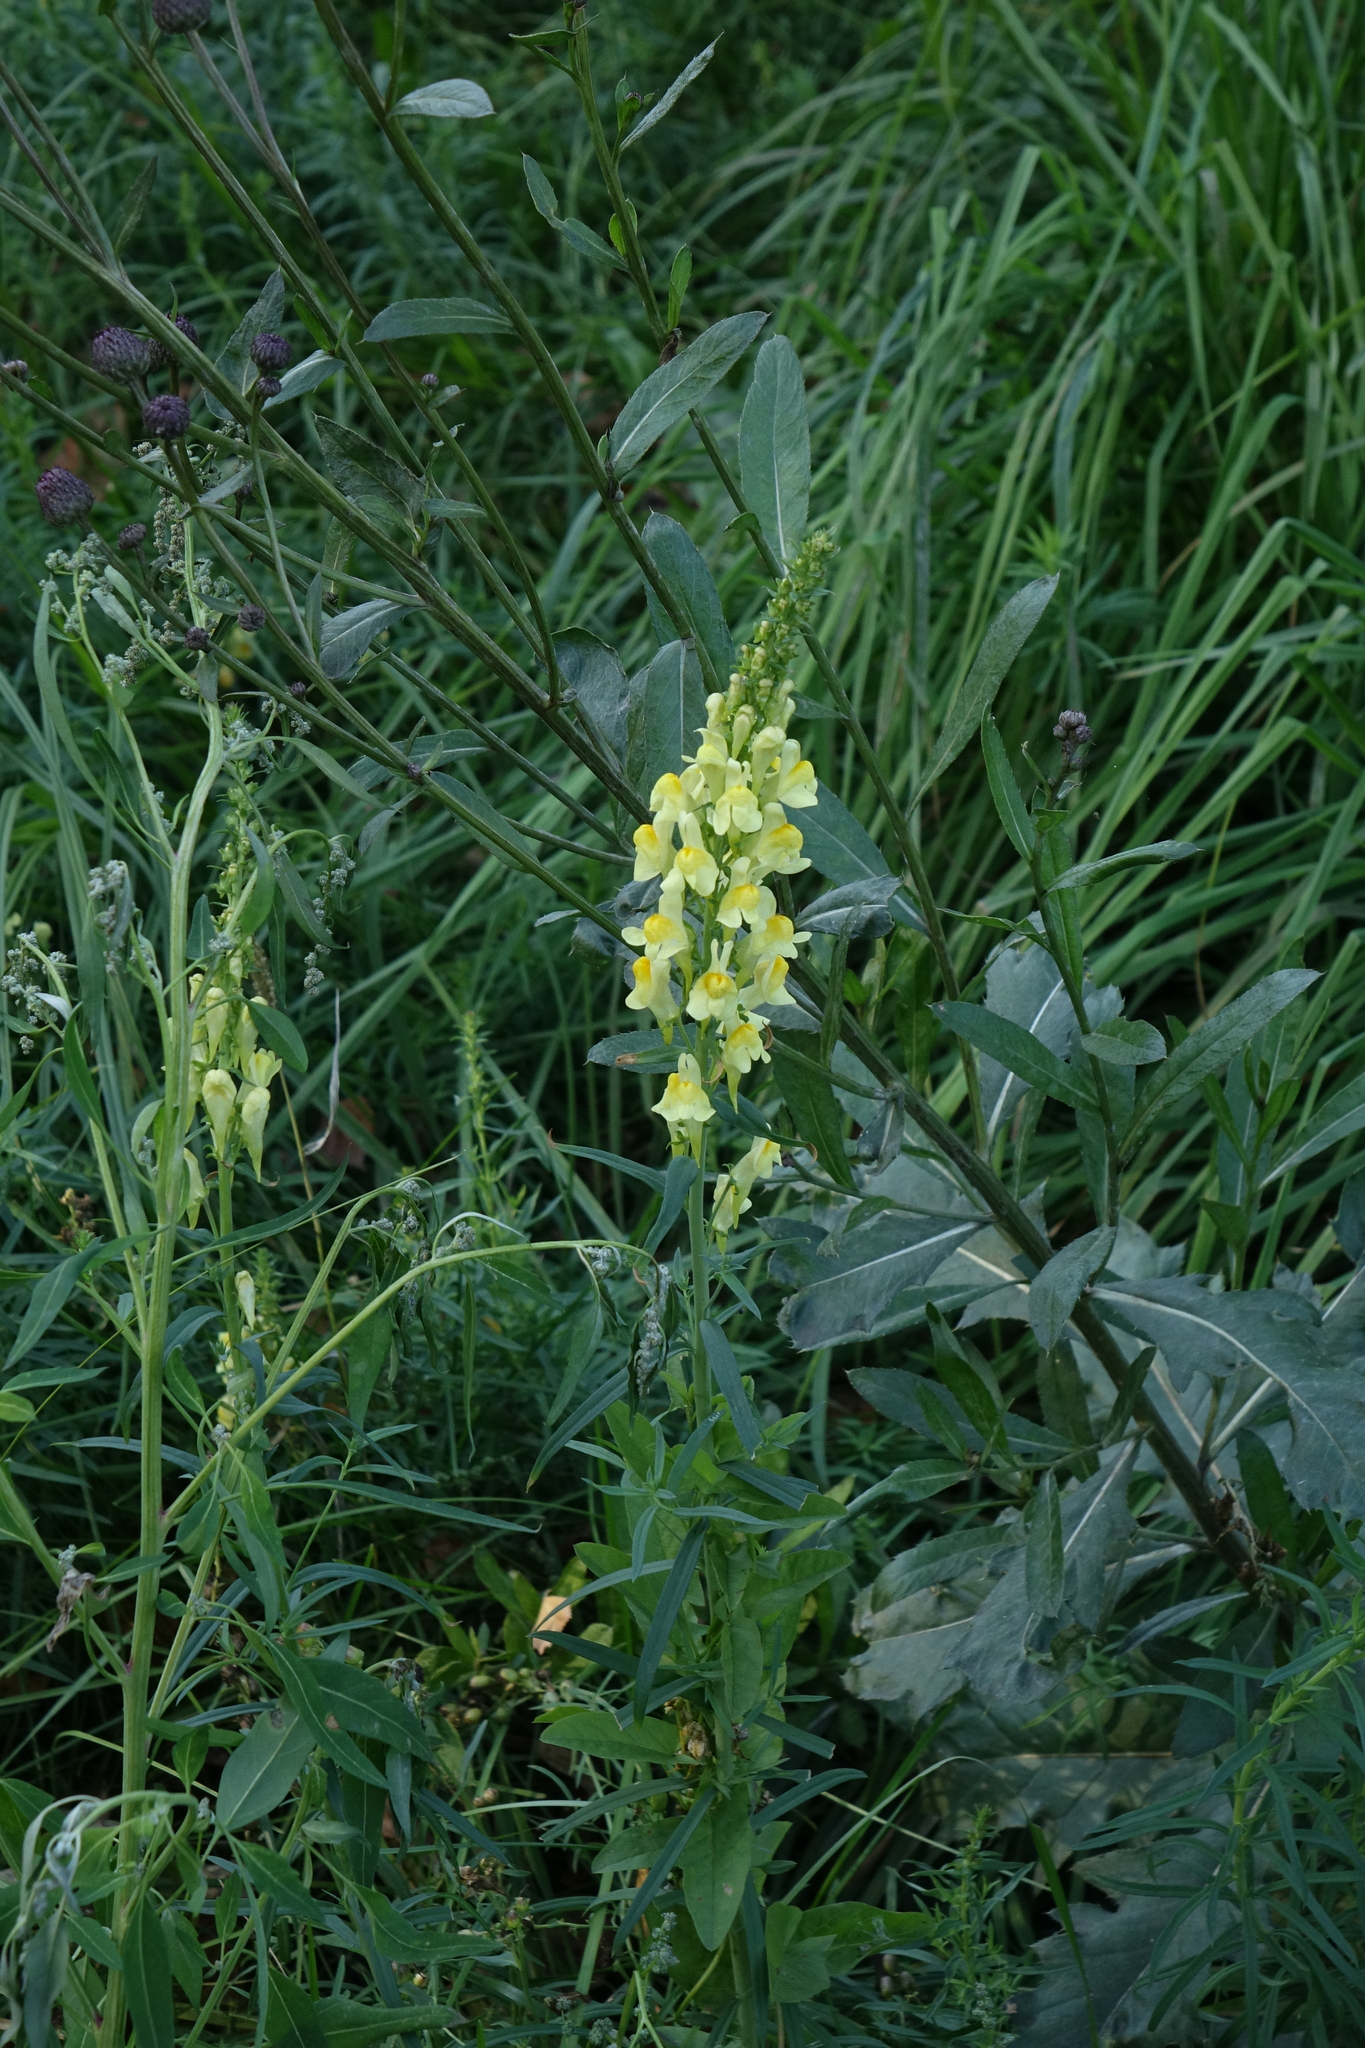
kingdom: Plantae
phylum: Tracheophyta
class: Magnoliopsida
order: Lamiales
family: Plantaginaceae
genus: Linaria
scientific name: Linaria vulgaris
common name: Butter and eggs
